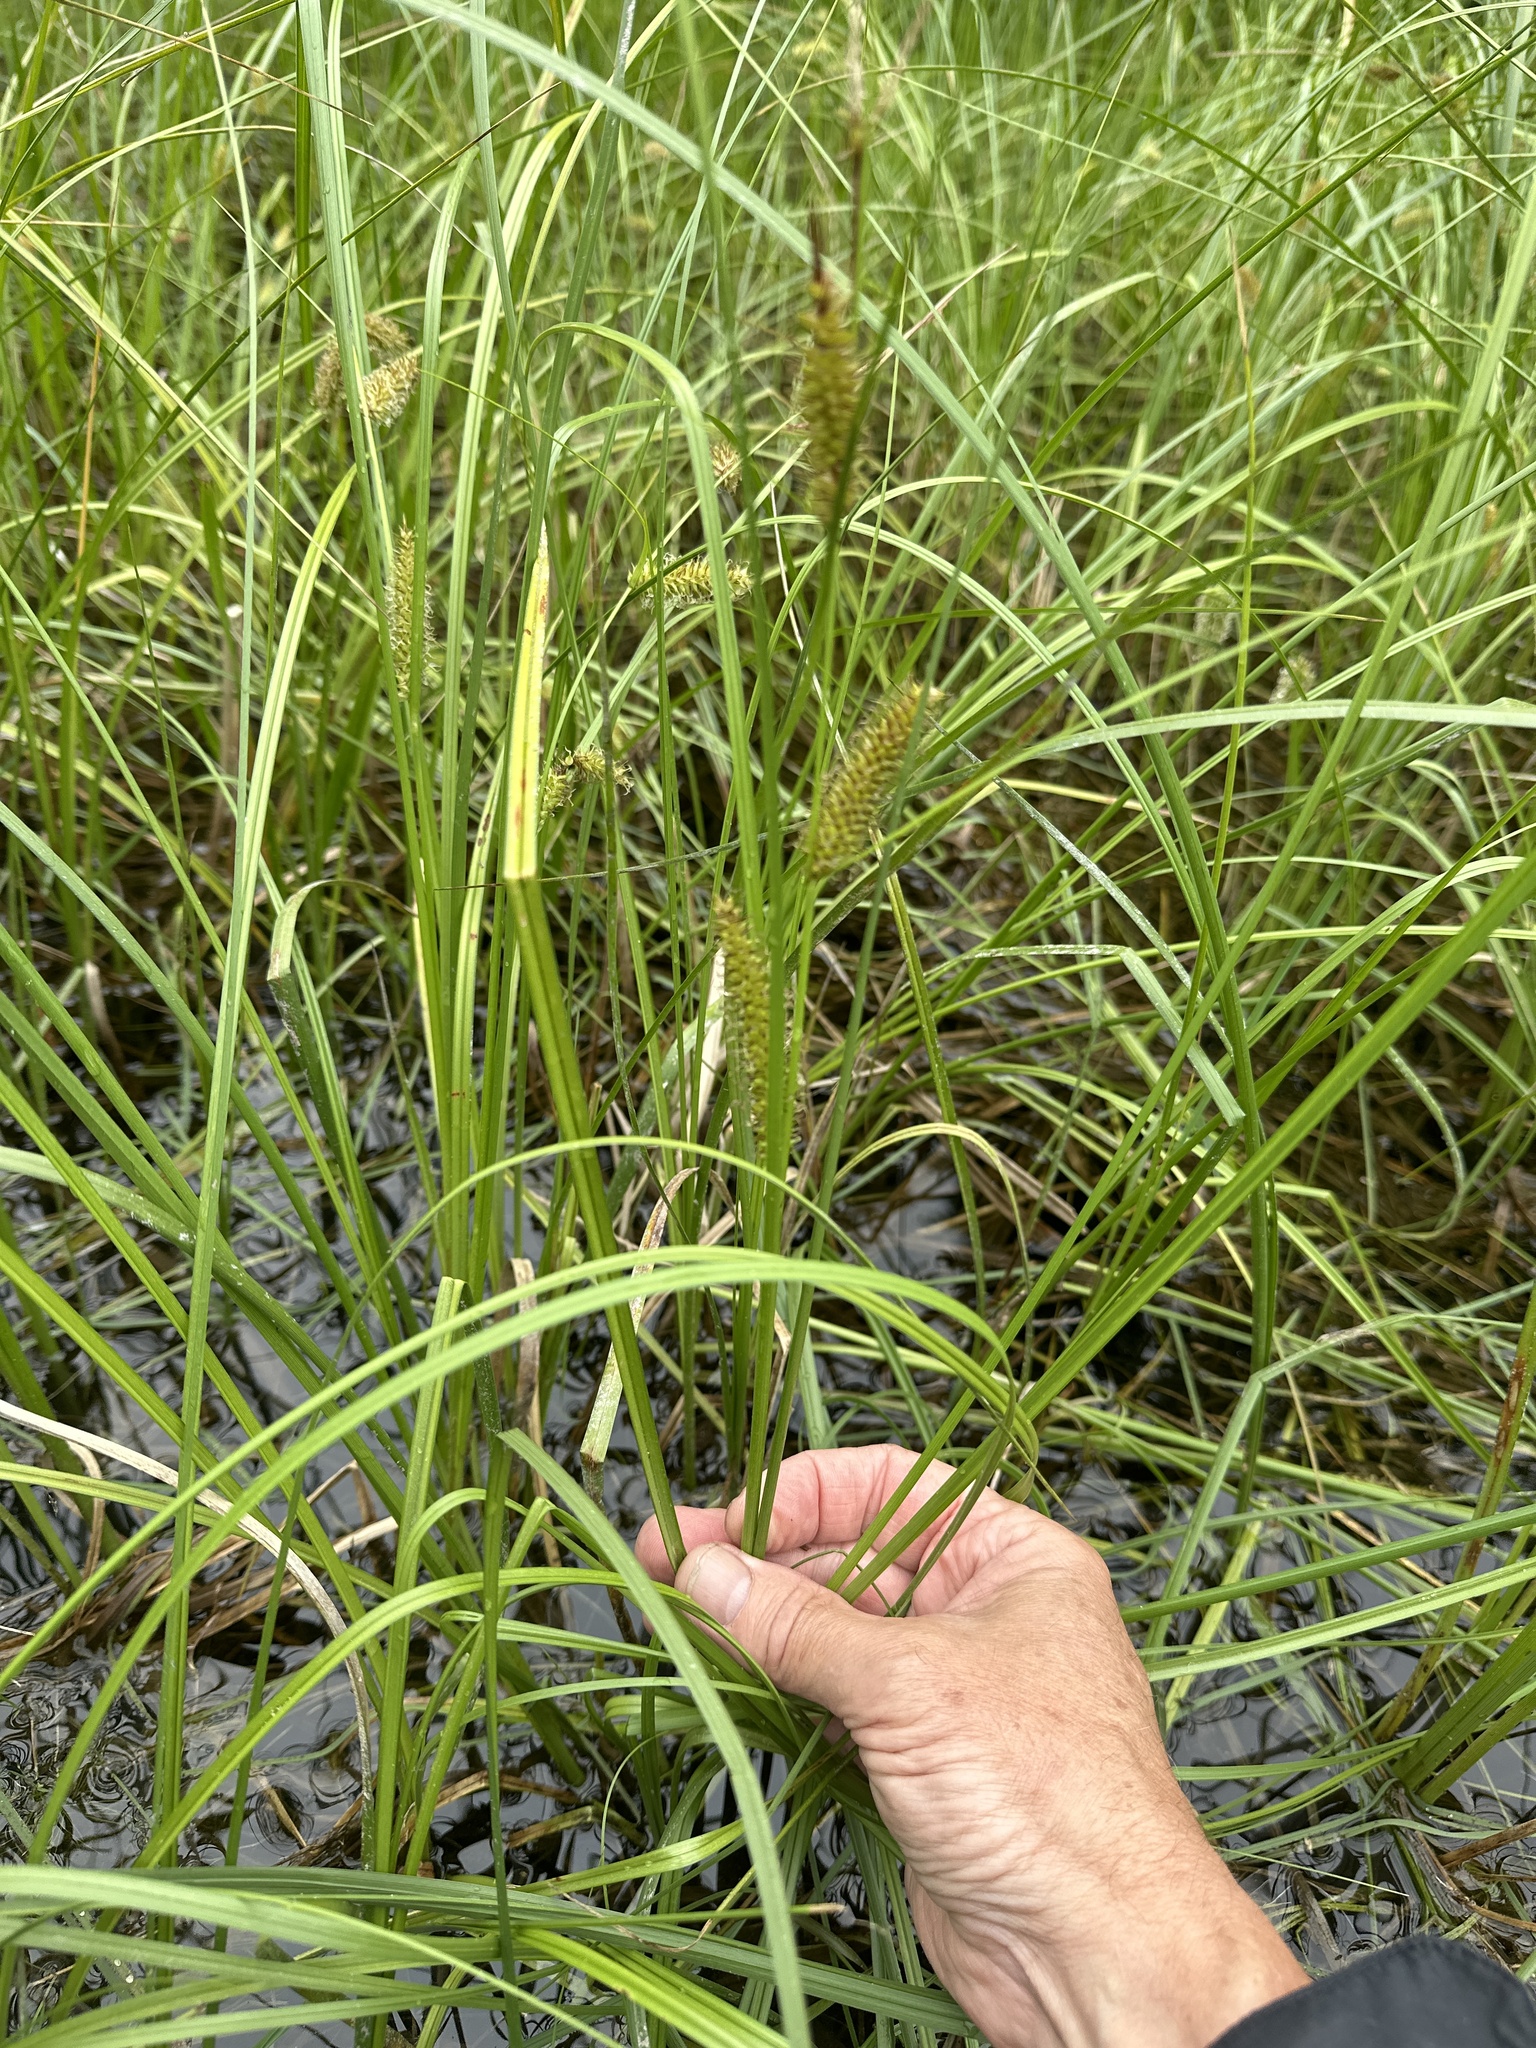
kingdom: Plantae
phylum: Tracheophyta
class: Liliopsida
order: Poales
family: Cyperaceae
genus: Carex
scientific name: Carex utriculata
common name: Beaked sedge
